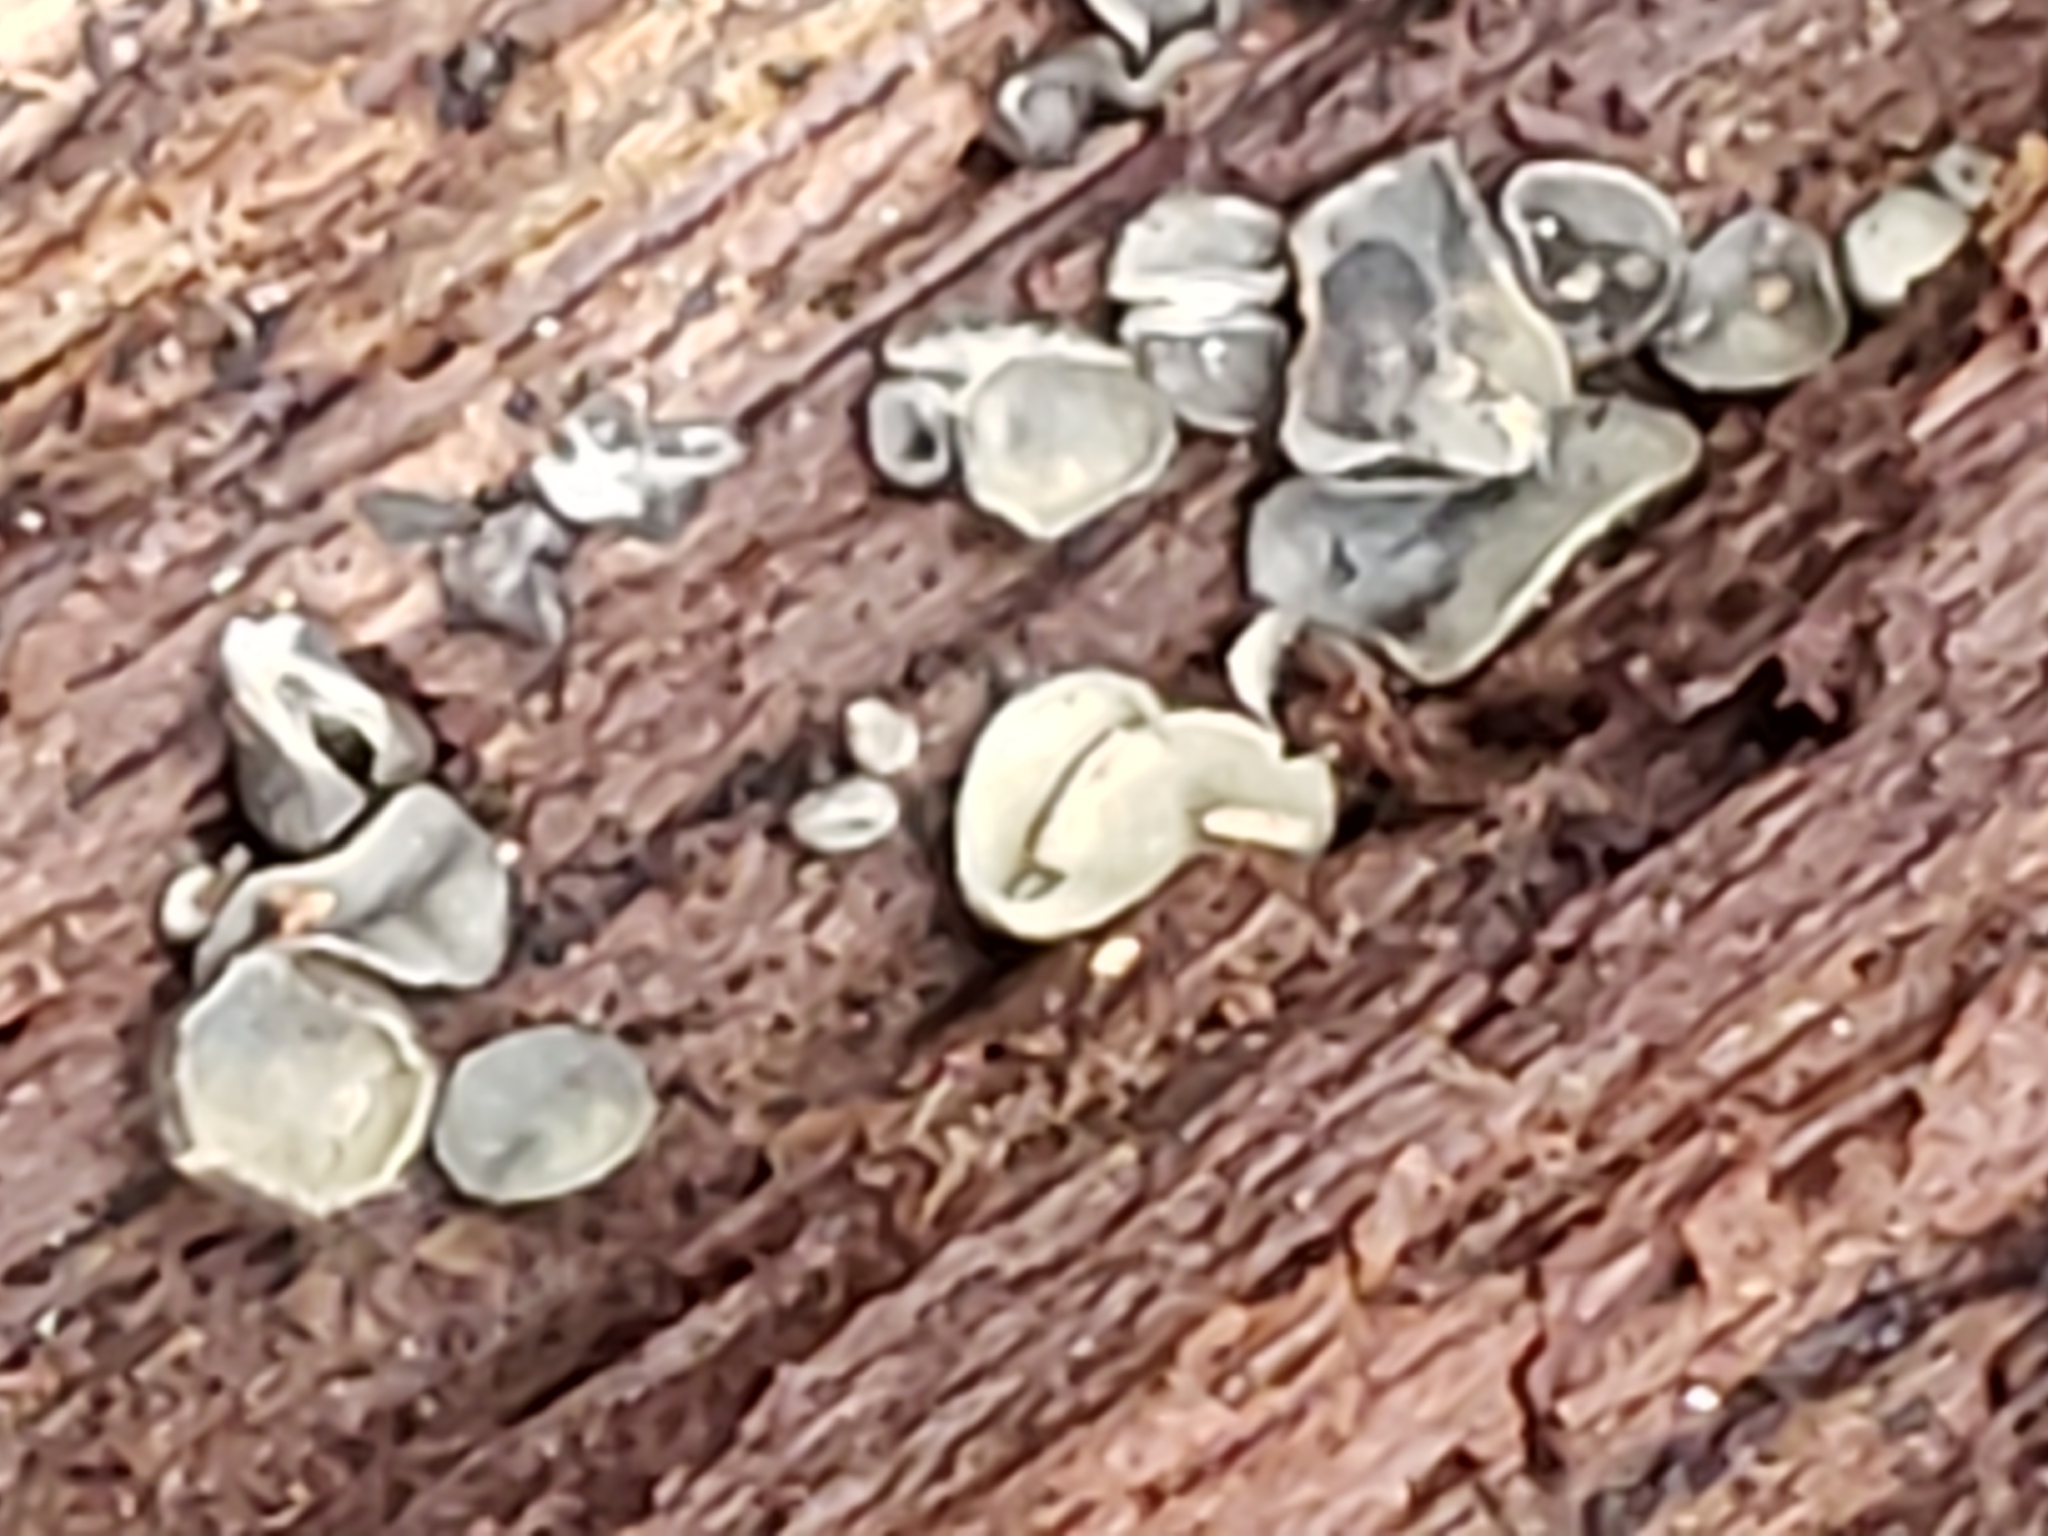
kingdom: Fungi
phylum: Ascomycota
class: Leotiomycetes
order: Helotiales
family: Chlorospleniaceae
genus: Chlorosplenium
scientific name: Chlorosplenium chlora
